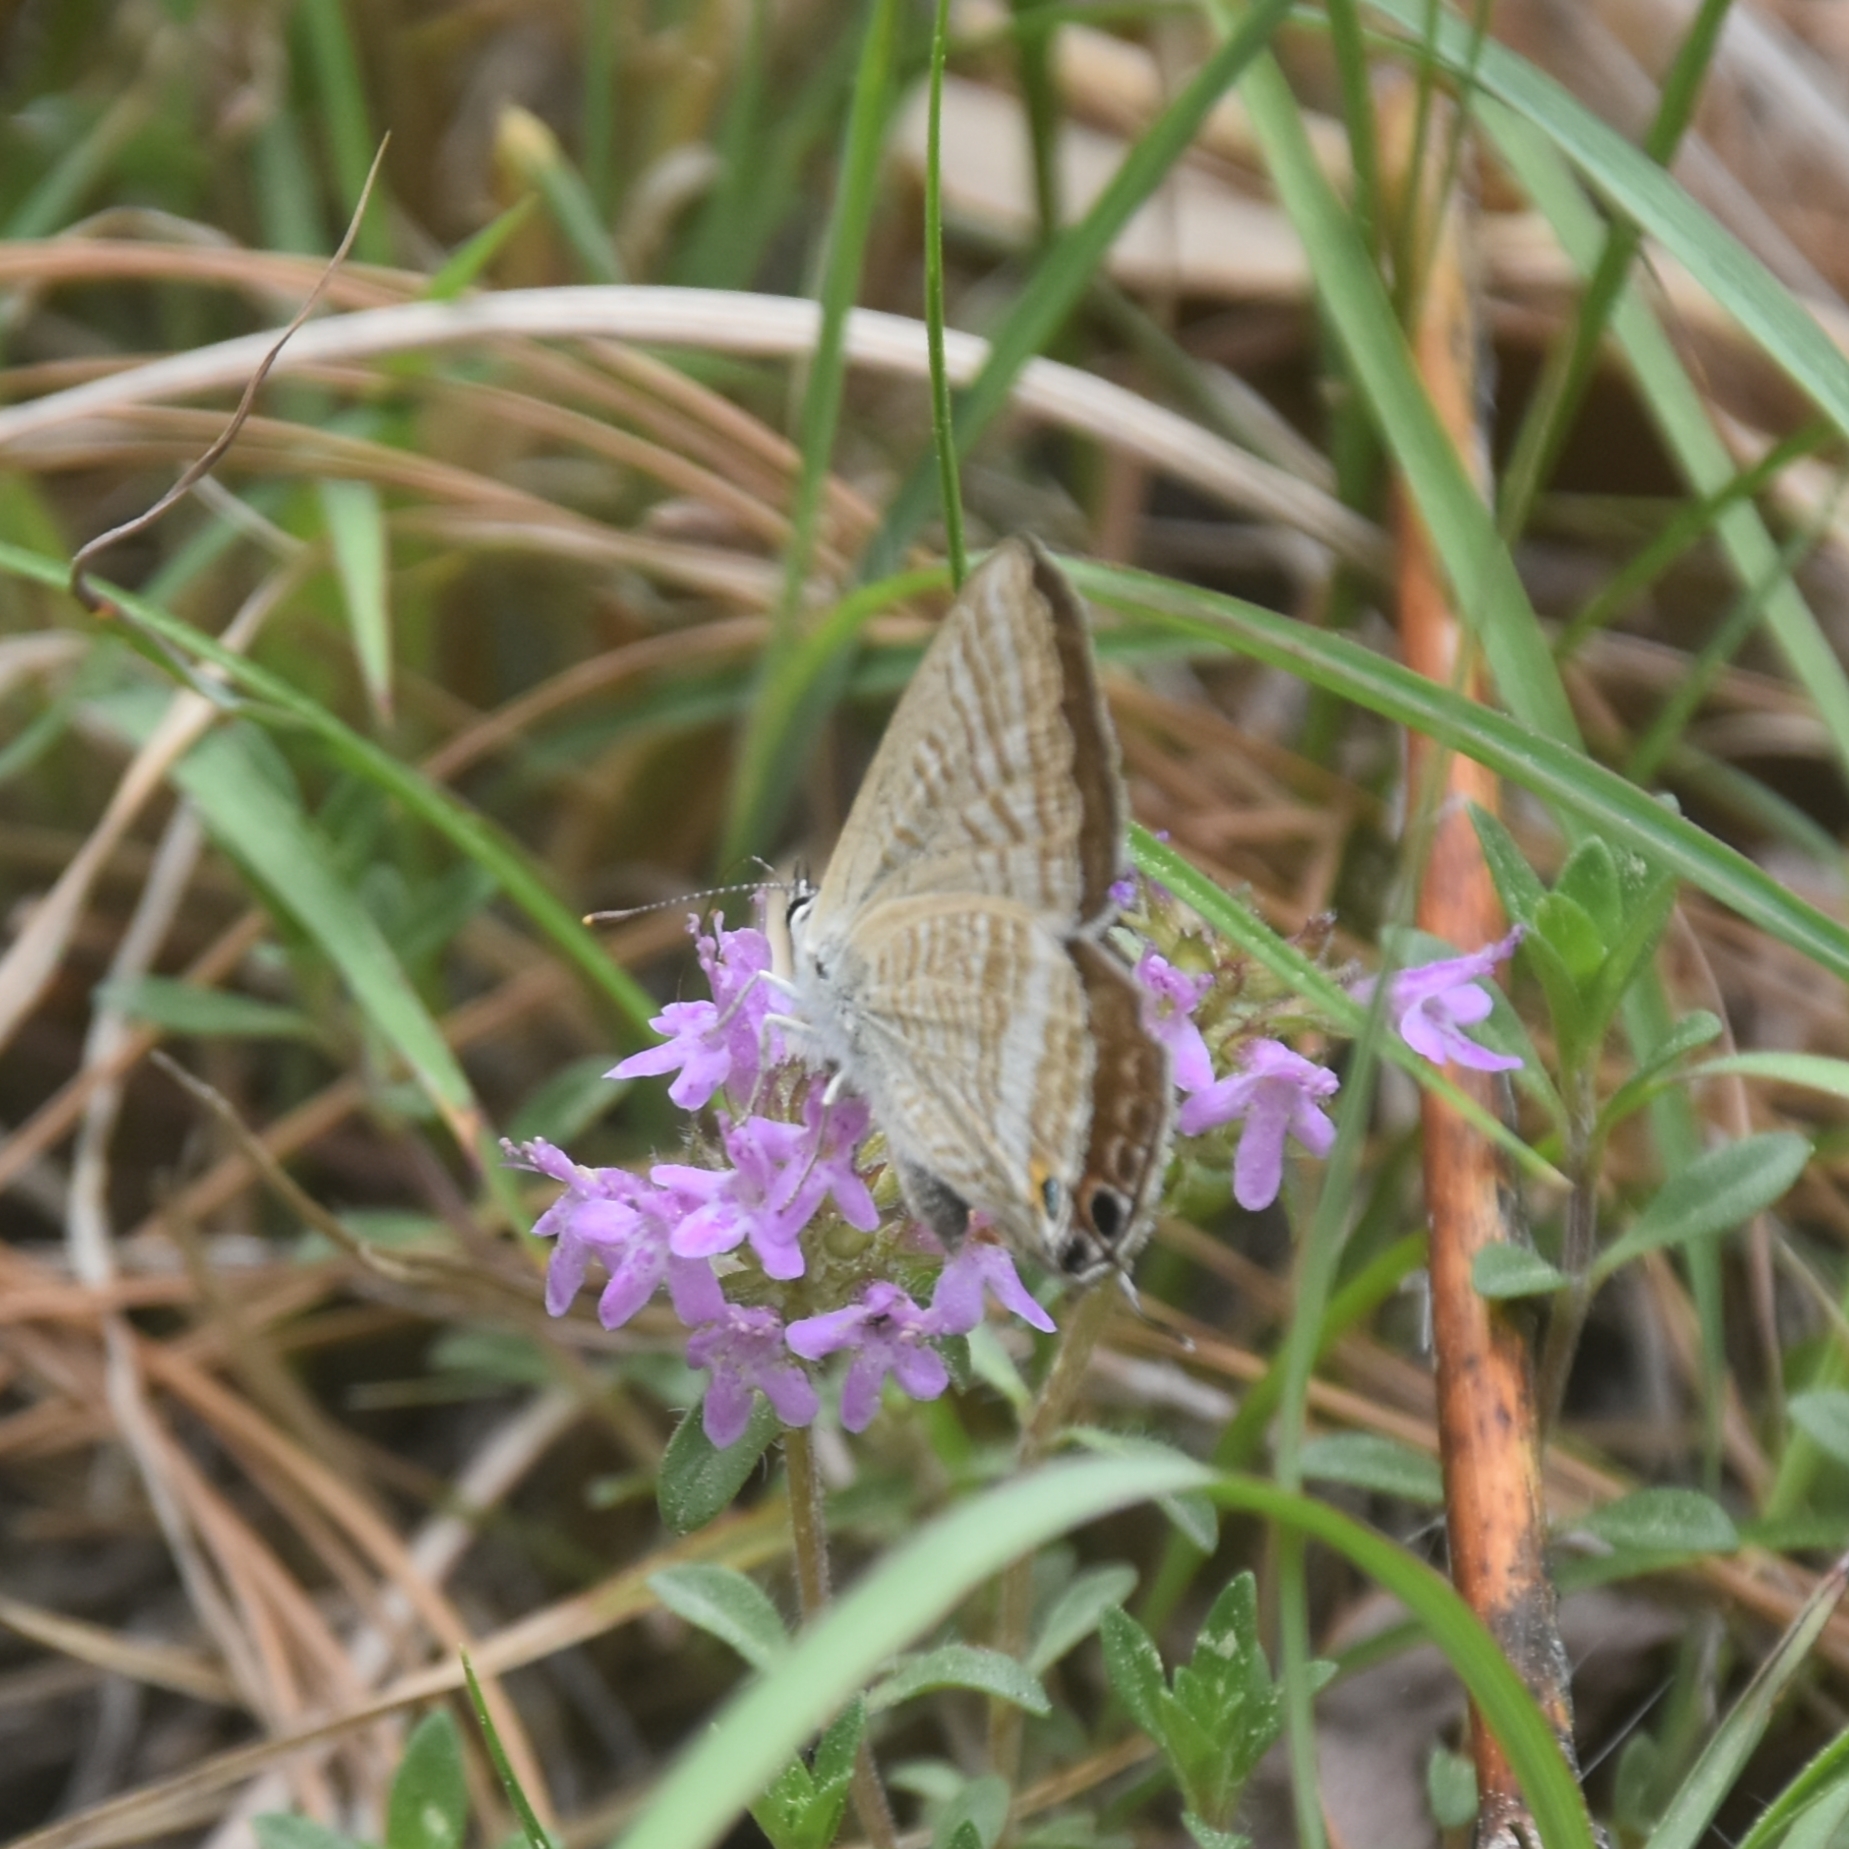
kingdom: Animalia
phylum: Arthropoda
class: Insecta
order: Lepidoptera
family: Lycaenidae
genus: Lampides
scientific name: Lampides boeticus
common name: Long-tailed blue
